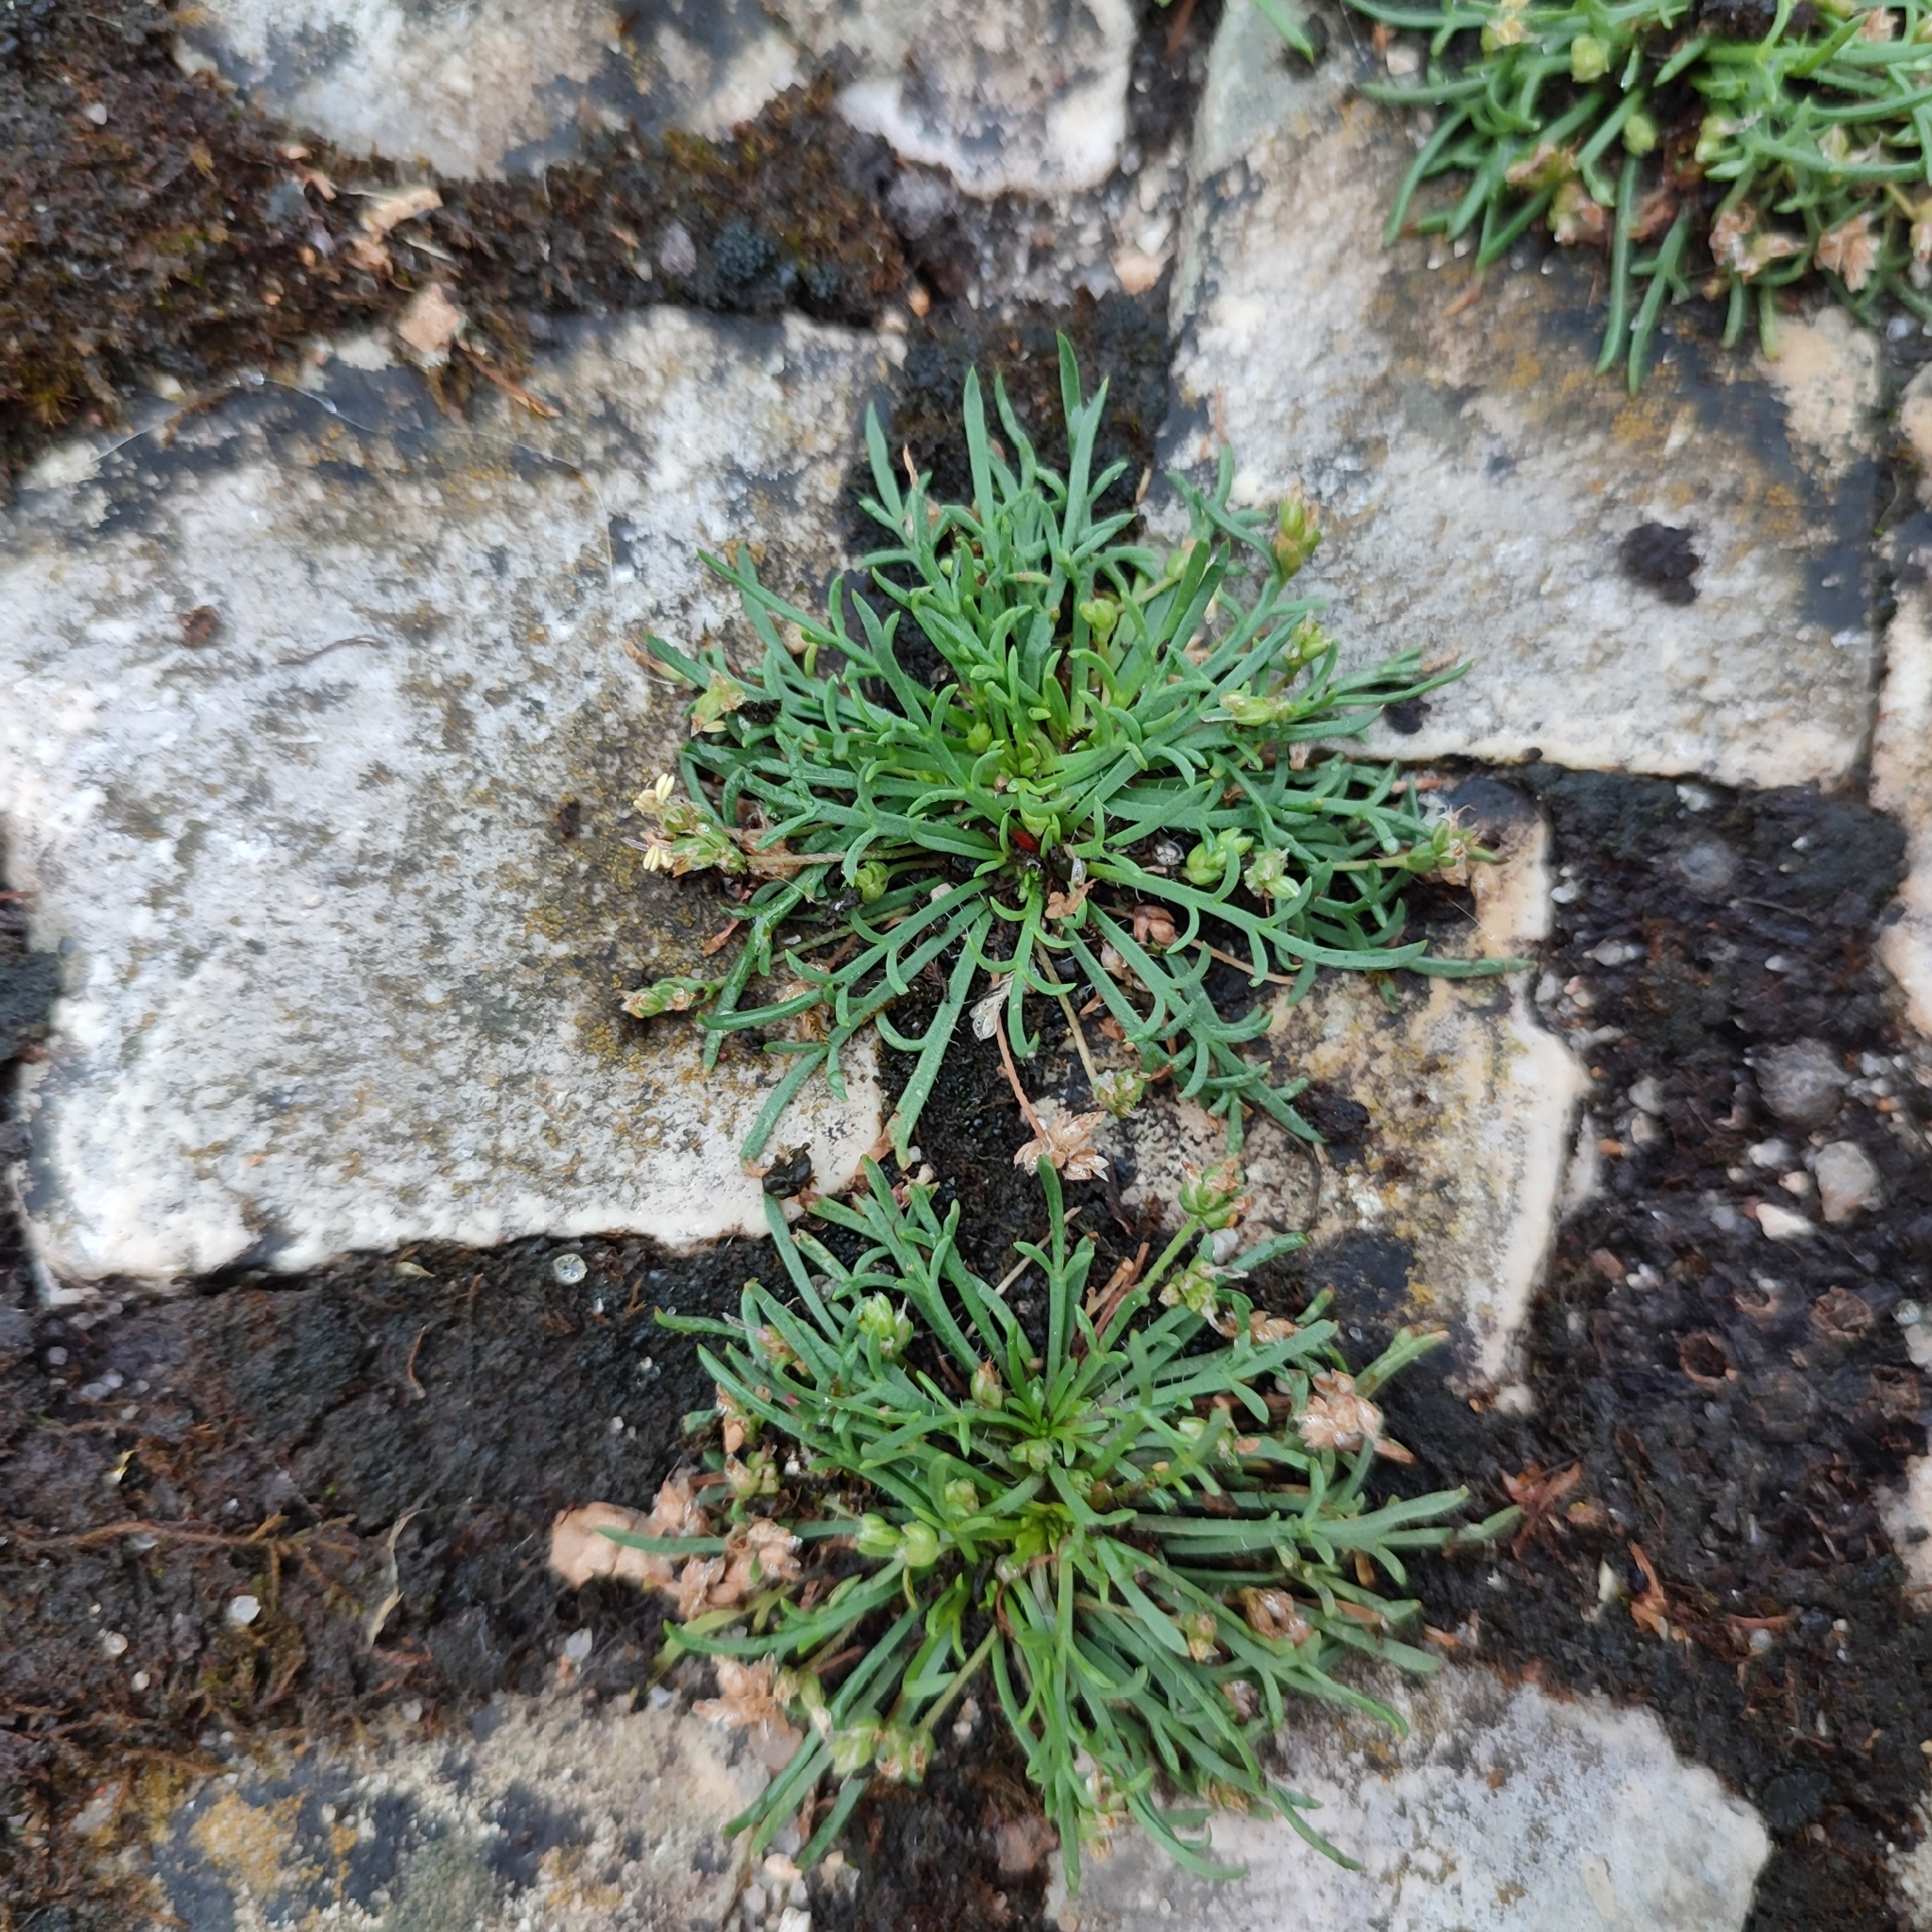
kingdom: Plantae
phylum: Tracheophyta
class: Magnoliopsida
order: Lamiales
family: Plantaginaceae
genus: Plantago
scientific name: Plantago coronopus
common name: Buck's-horn plantain
